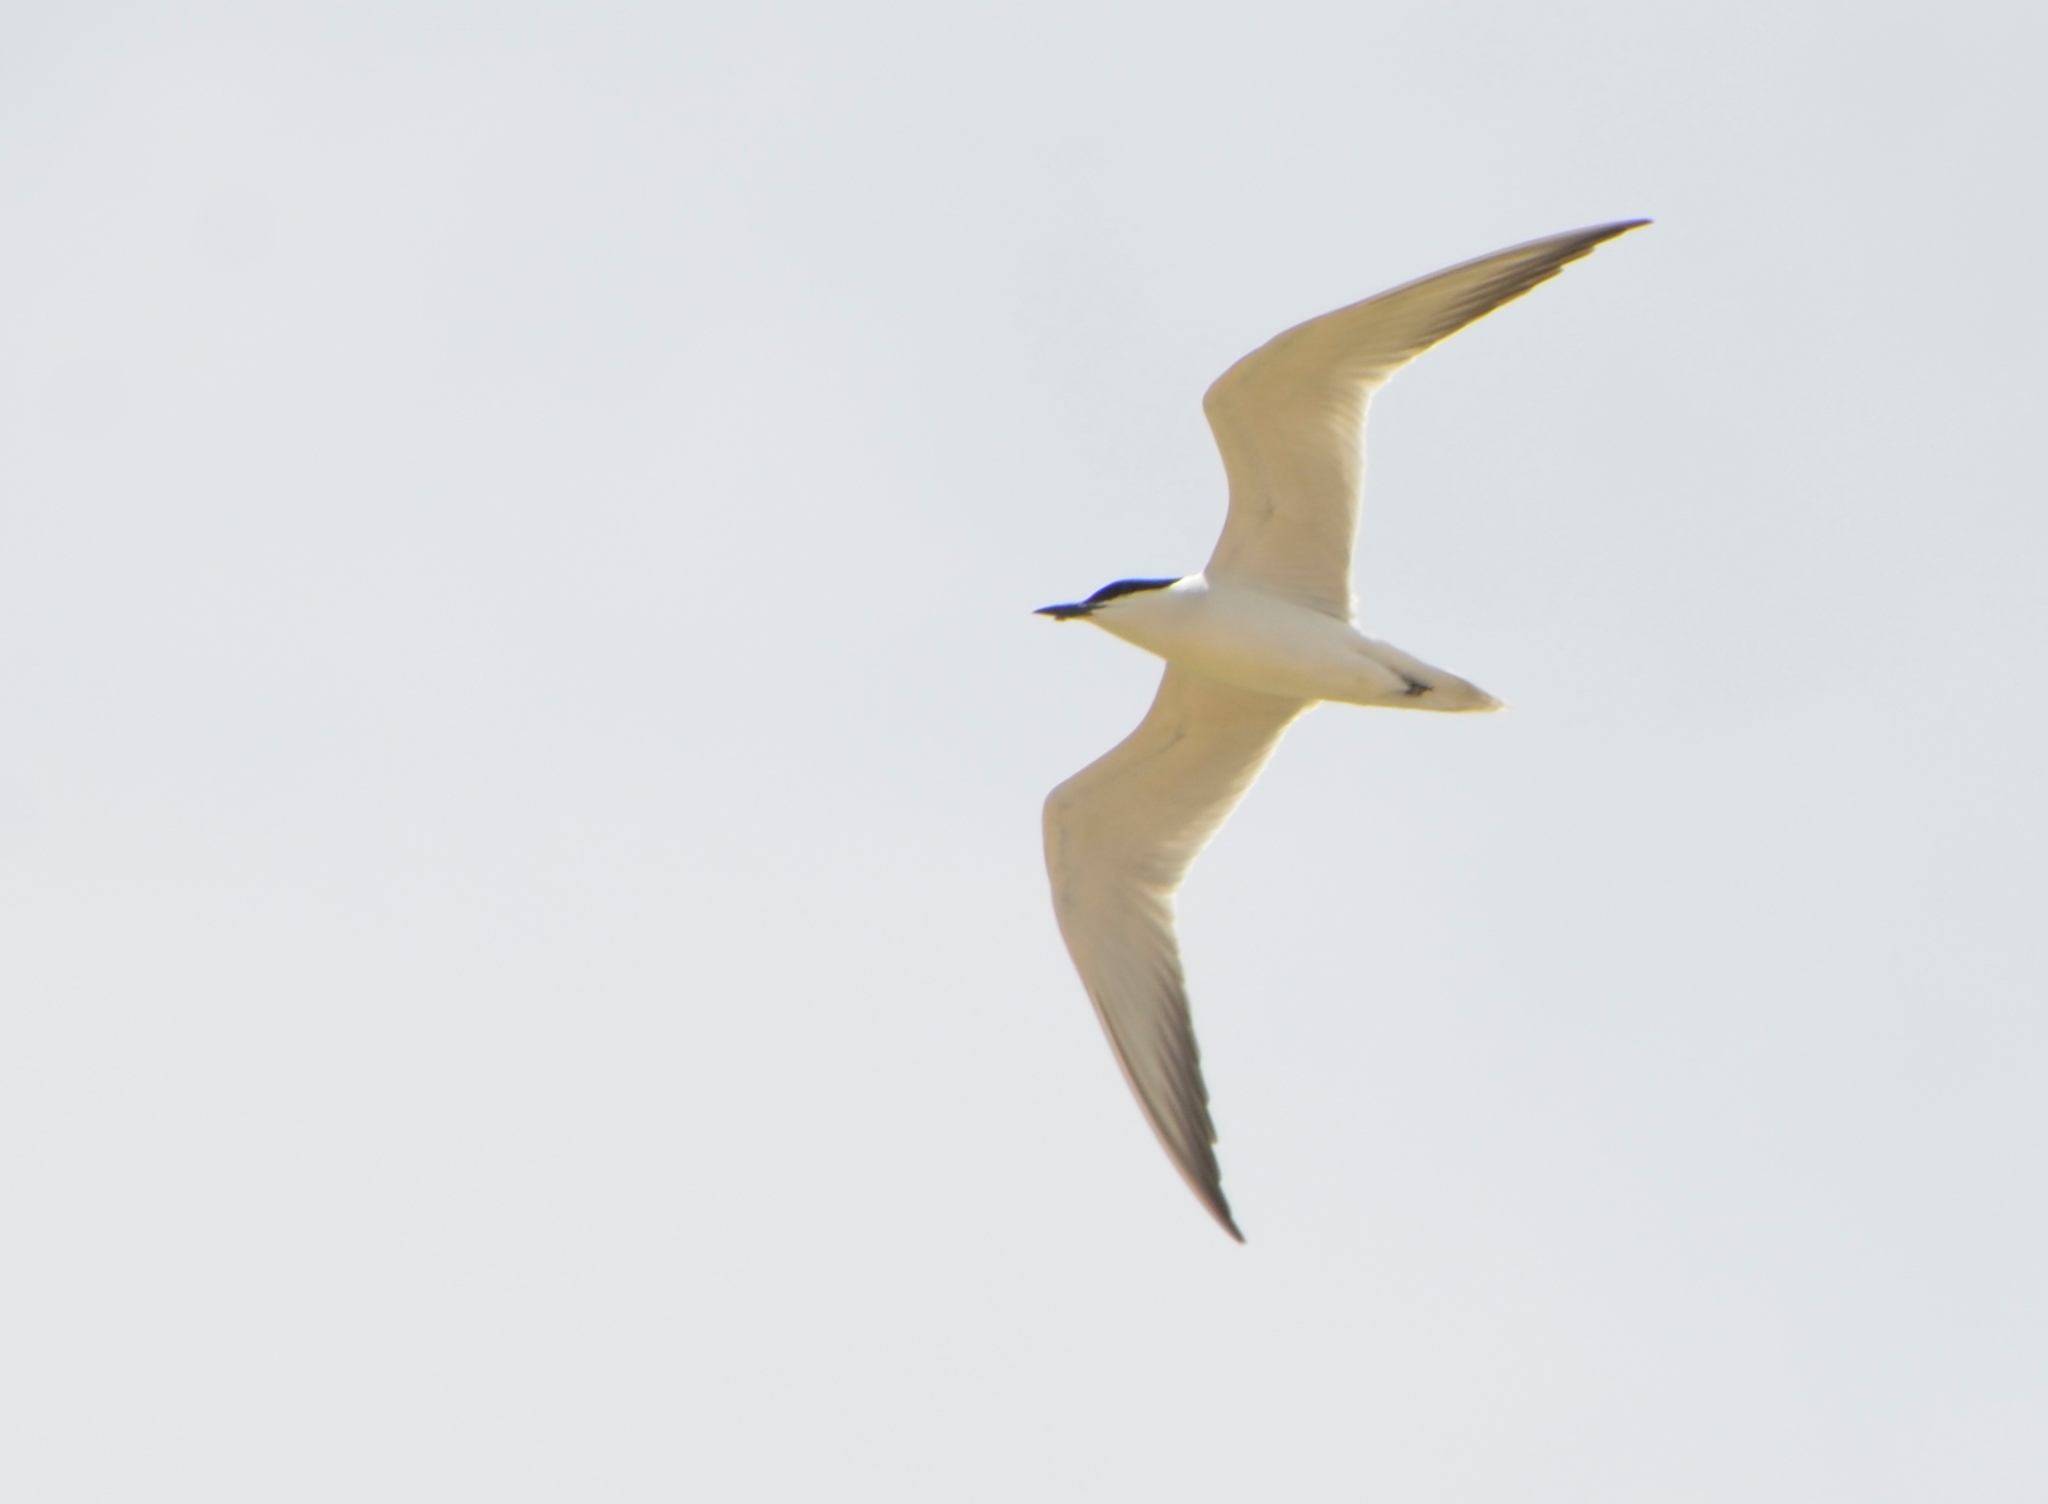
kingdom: Animalia
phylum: Chordata
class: Aves
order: Charadriiformes
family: Laridae
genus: Gelochelidon
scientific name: Gelochelidon nilotica
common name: Gull-billed tern
